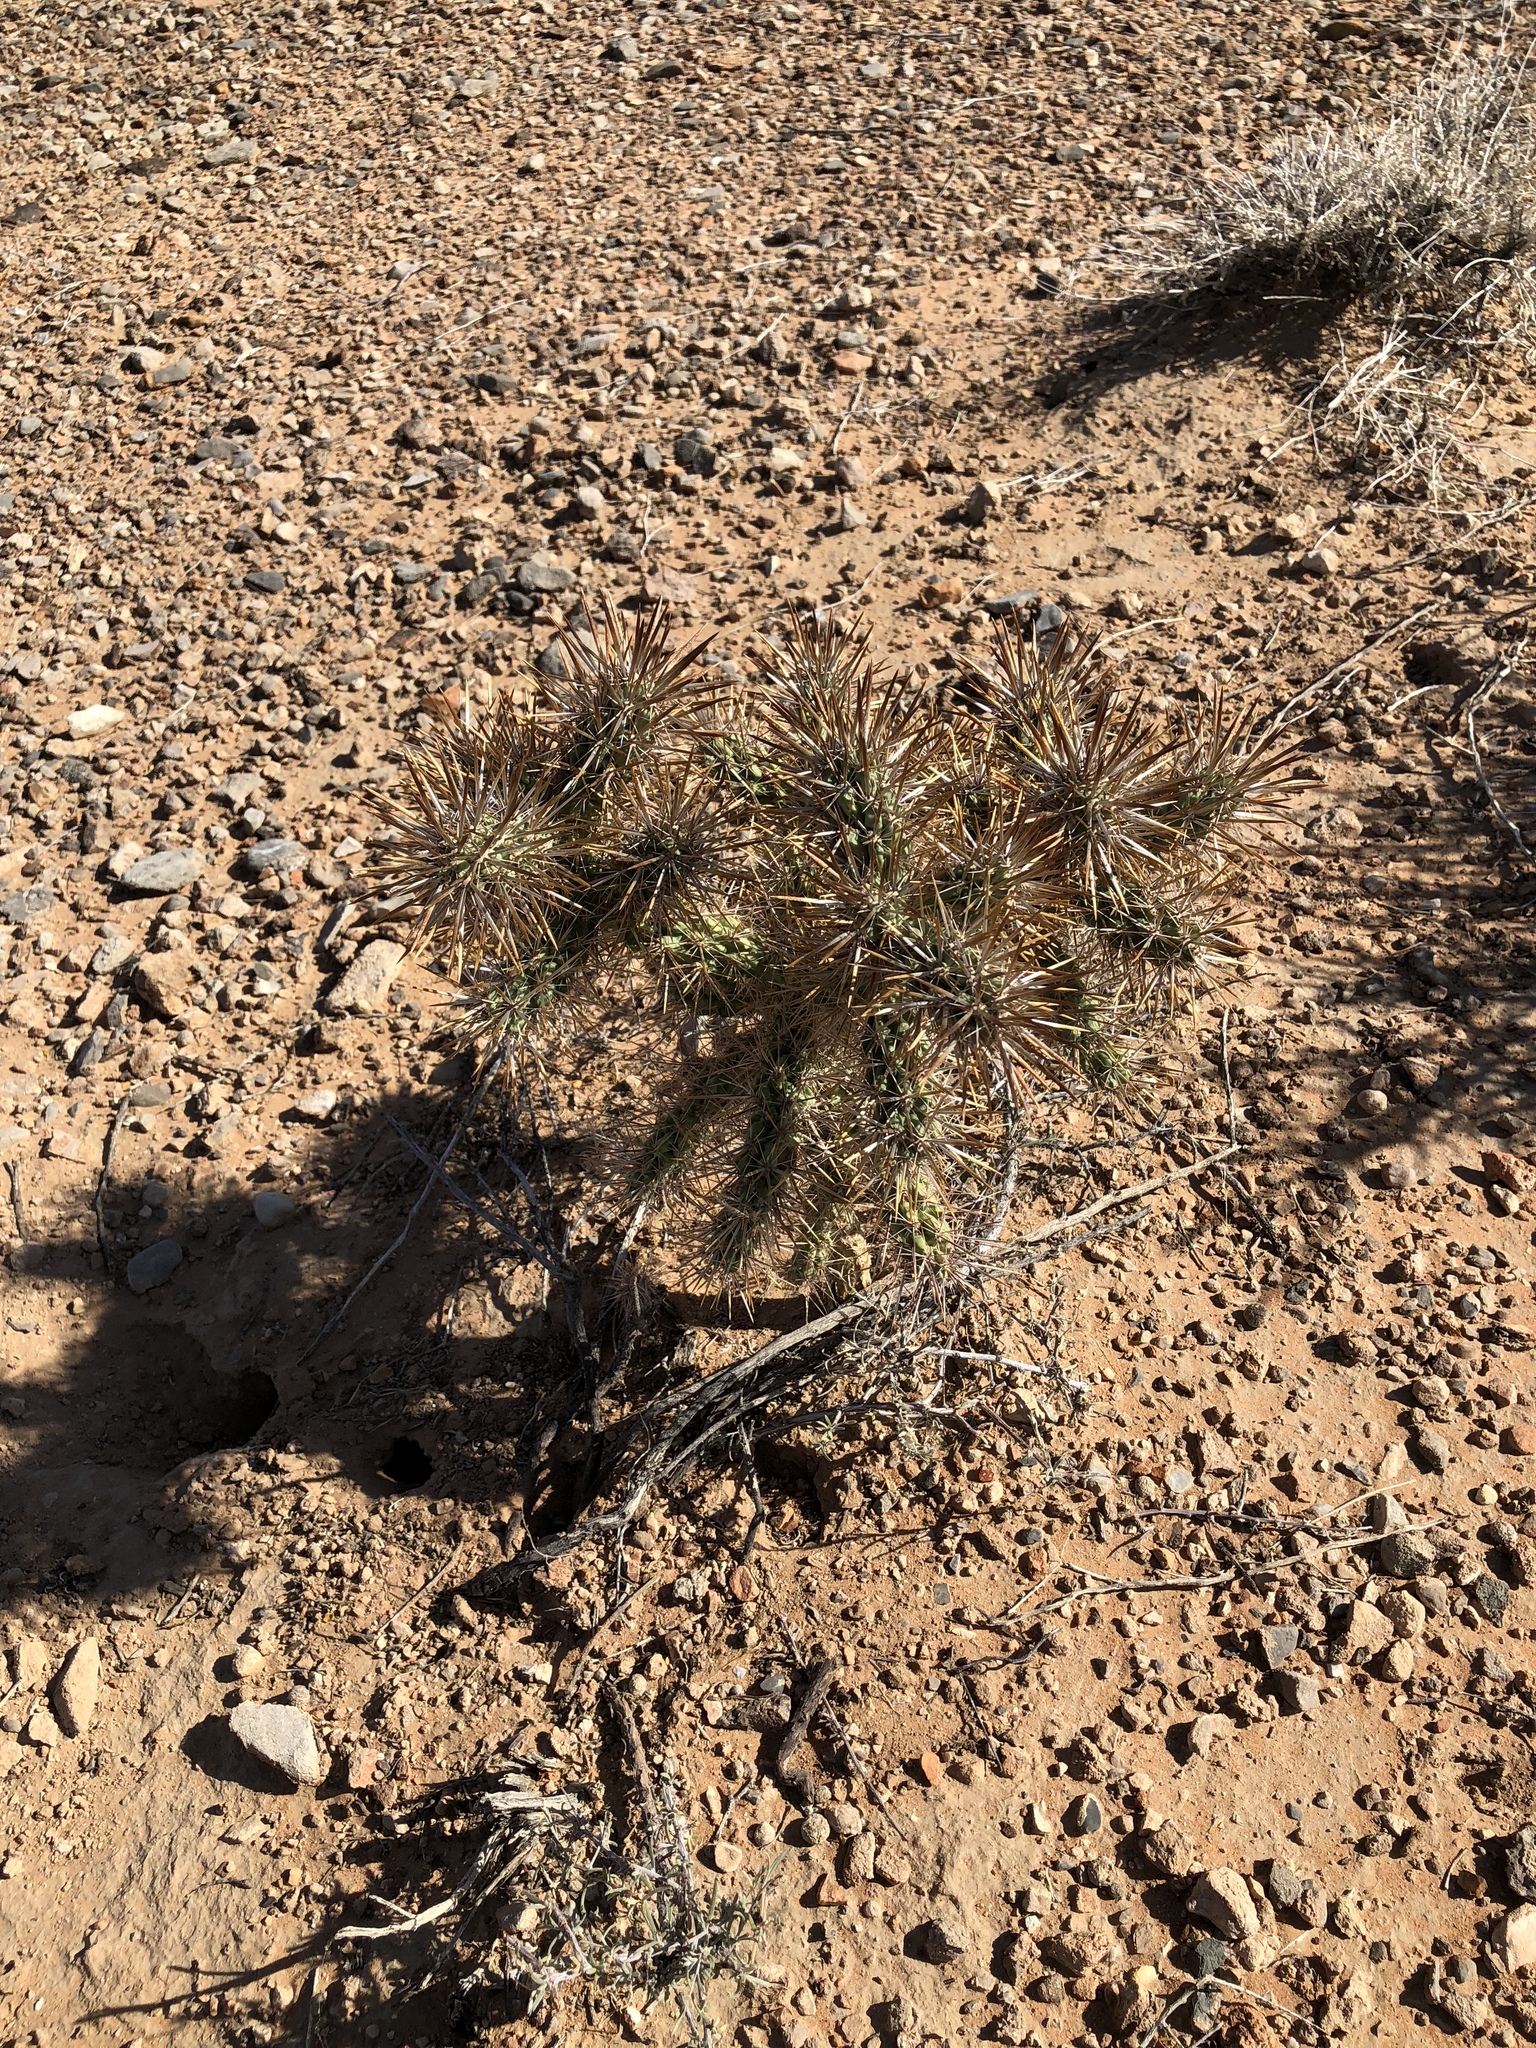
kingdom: Plantae
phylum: Tracheophyta
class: Magnoliopsida
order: Caryophyllales
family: Cactaceae
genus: Cylindropuntia
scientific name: Cylindropuntia echinocarpa
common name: Ground cholla
